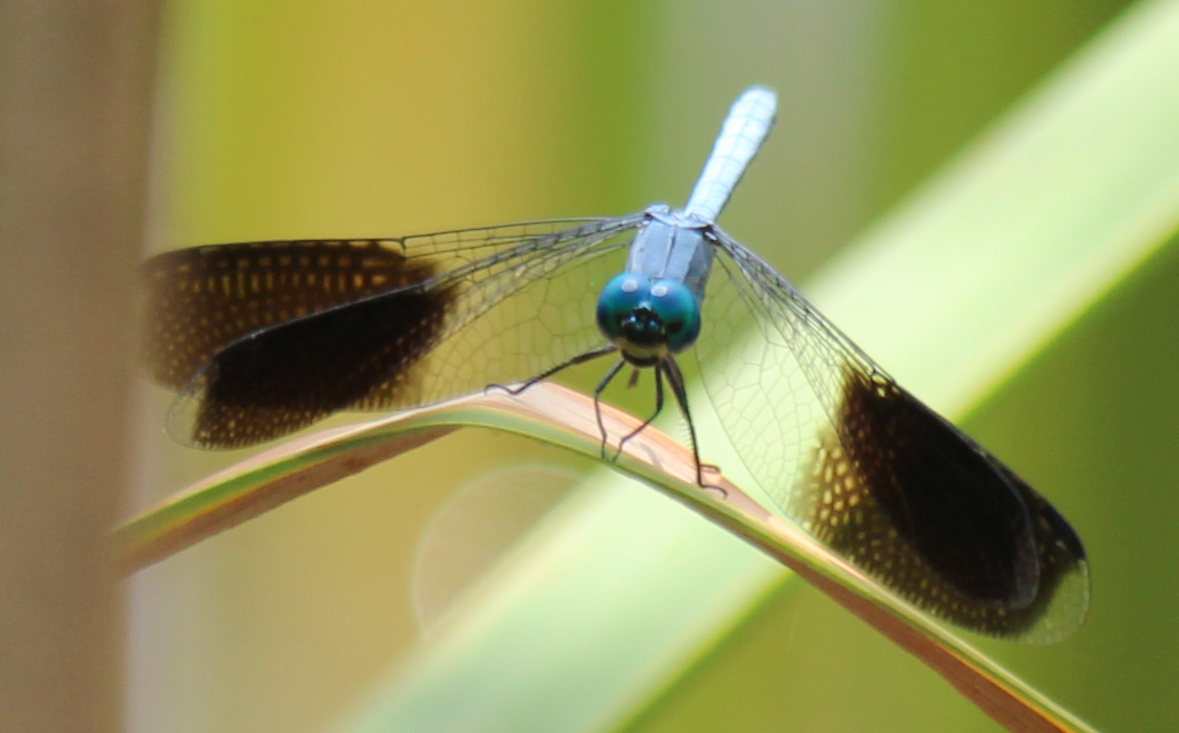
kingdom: Animalia
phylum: Arthropoda
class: Insecta
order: Odonata
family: Libellulidae
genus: Tetrathemis
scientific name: Tetrathemis polleni
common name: Black-splashed elf
